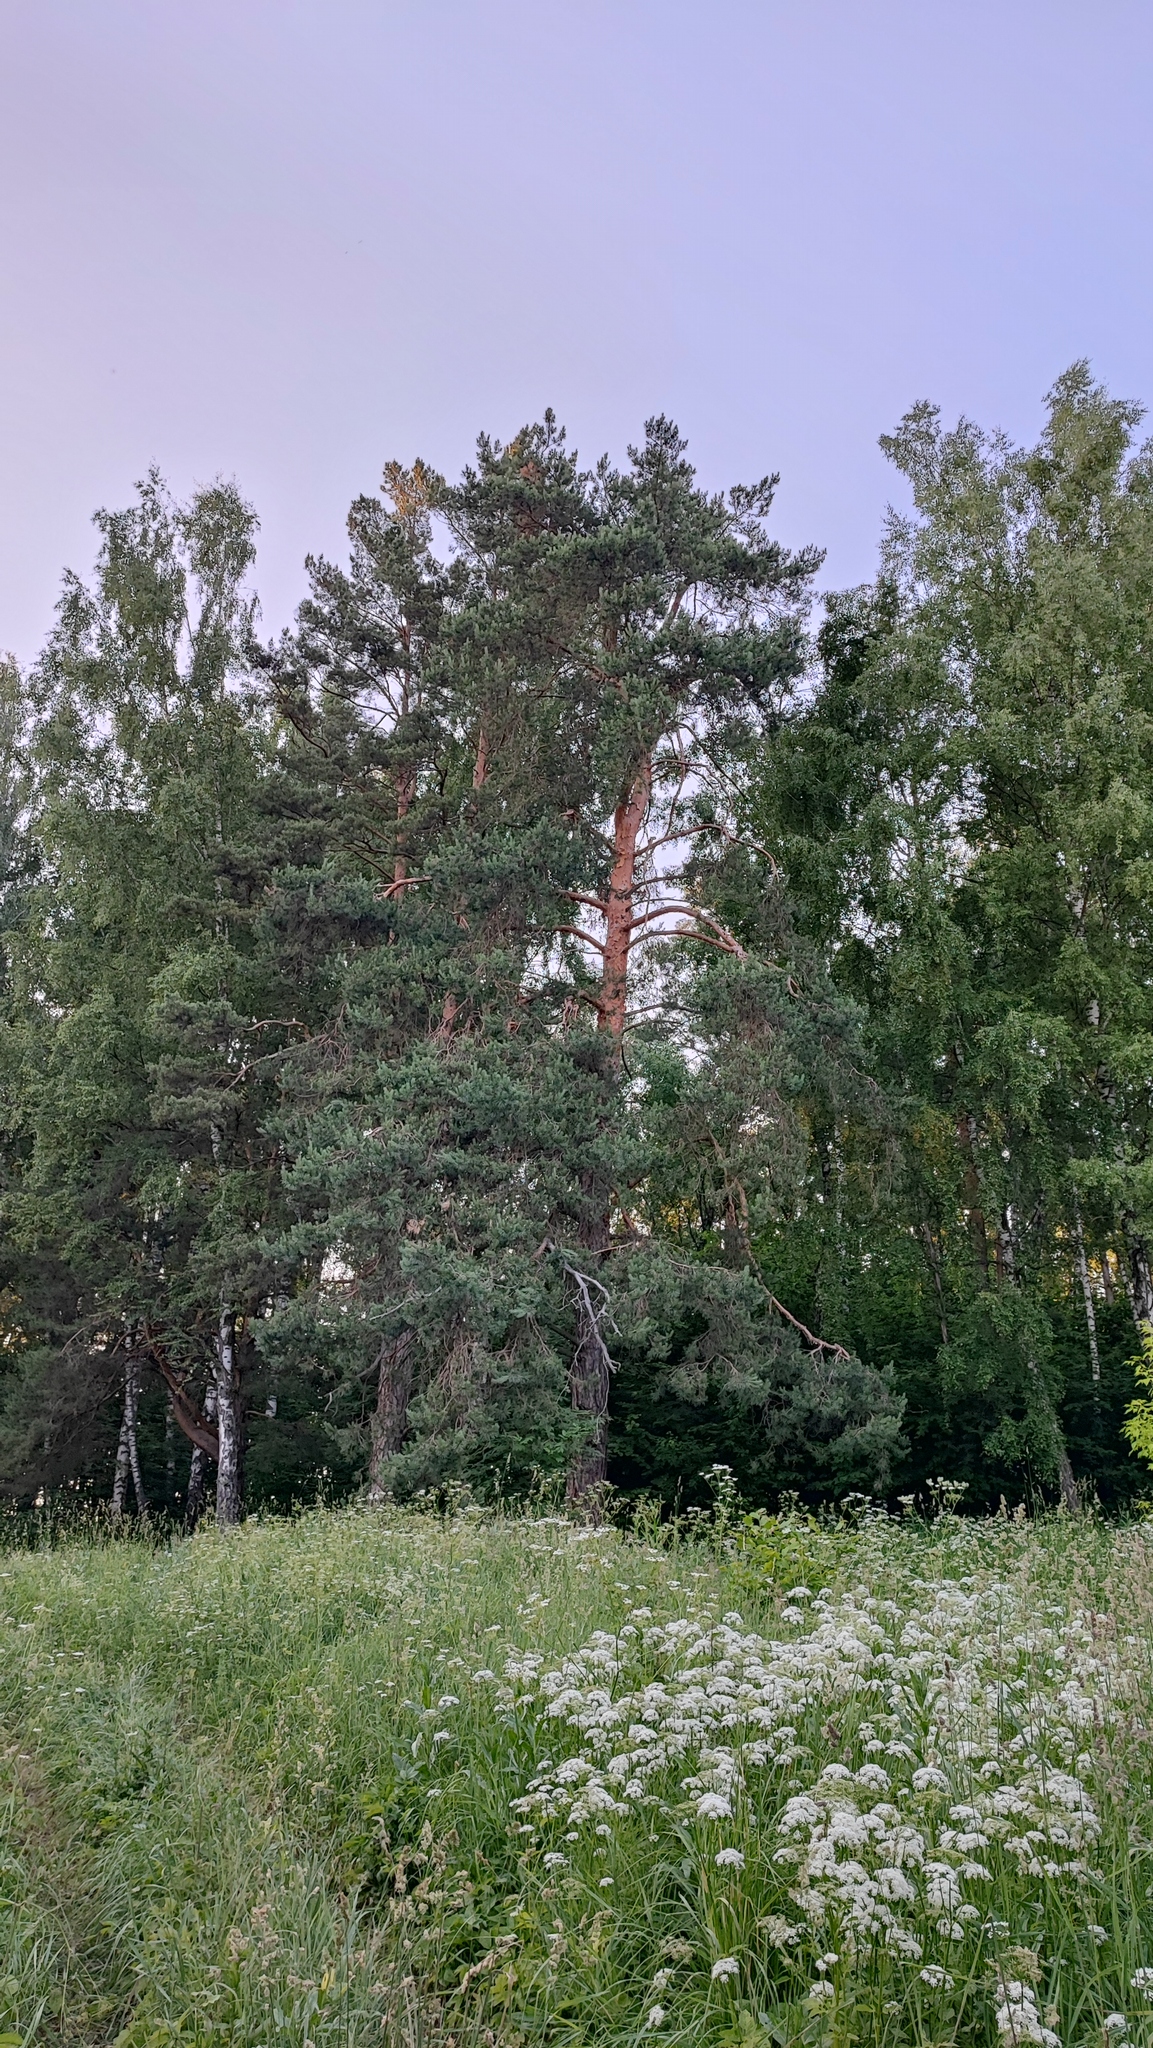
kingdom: Plantae
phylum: Tracheophyta
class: Pinopsida
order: Pinales
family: Pinaceae
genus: Pinus
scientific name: Pinus sylvestris
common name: Scots pine
